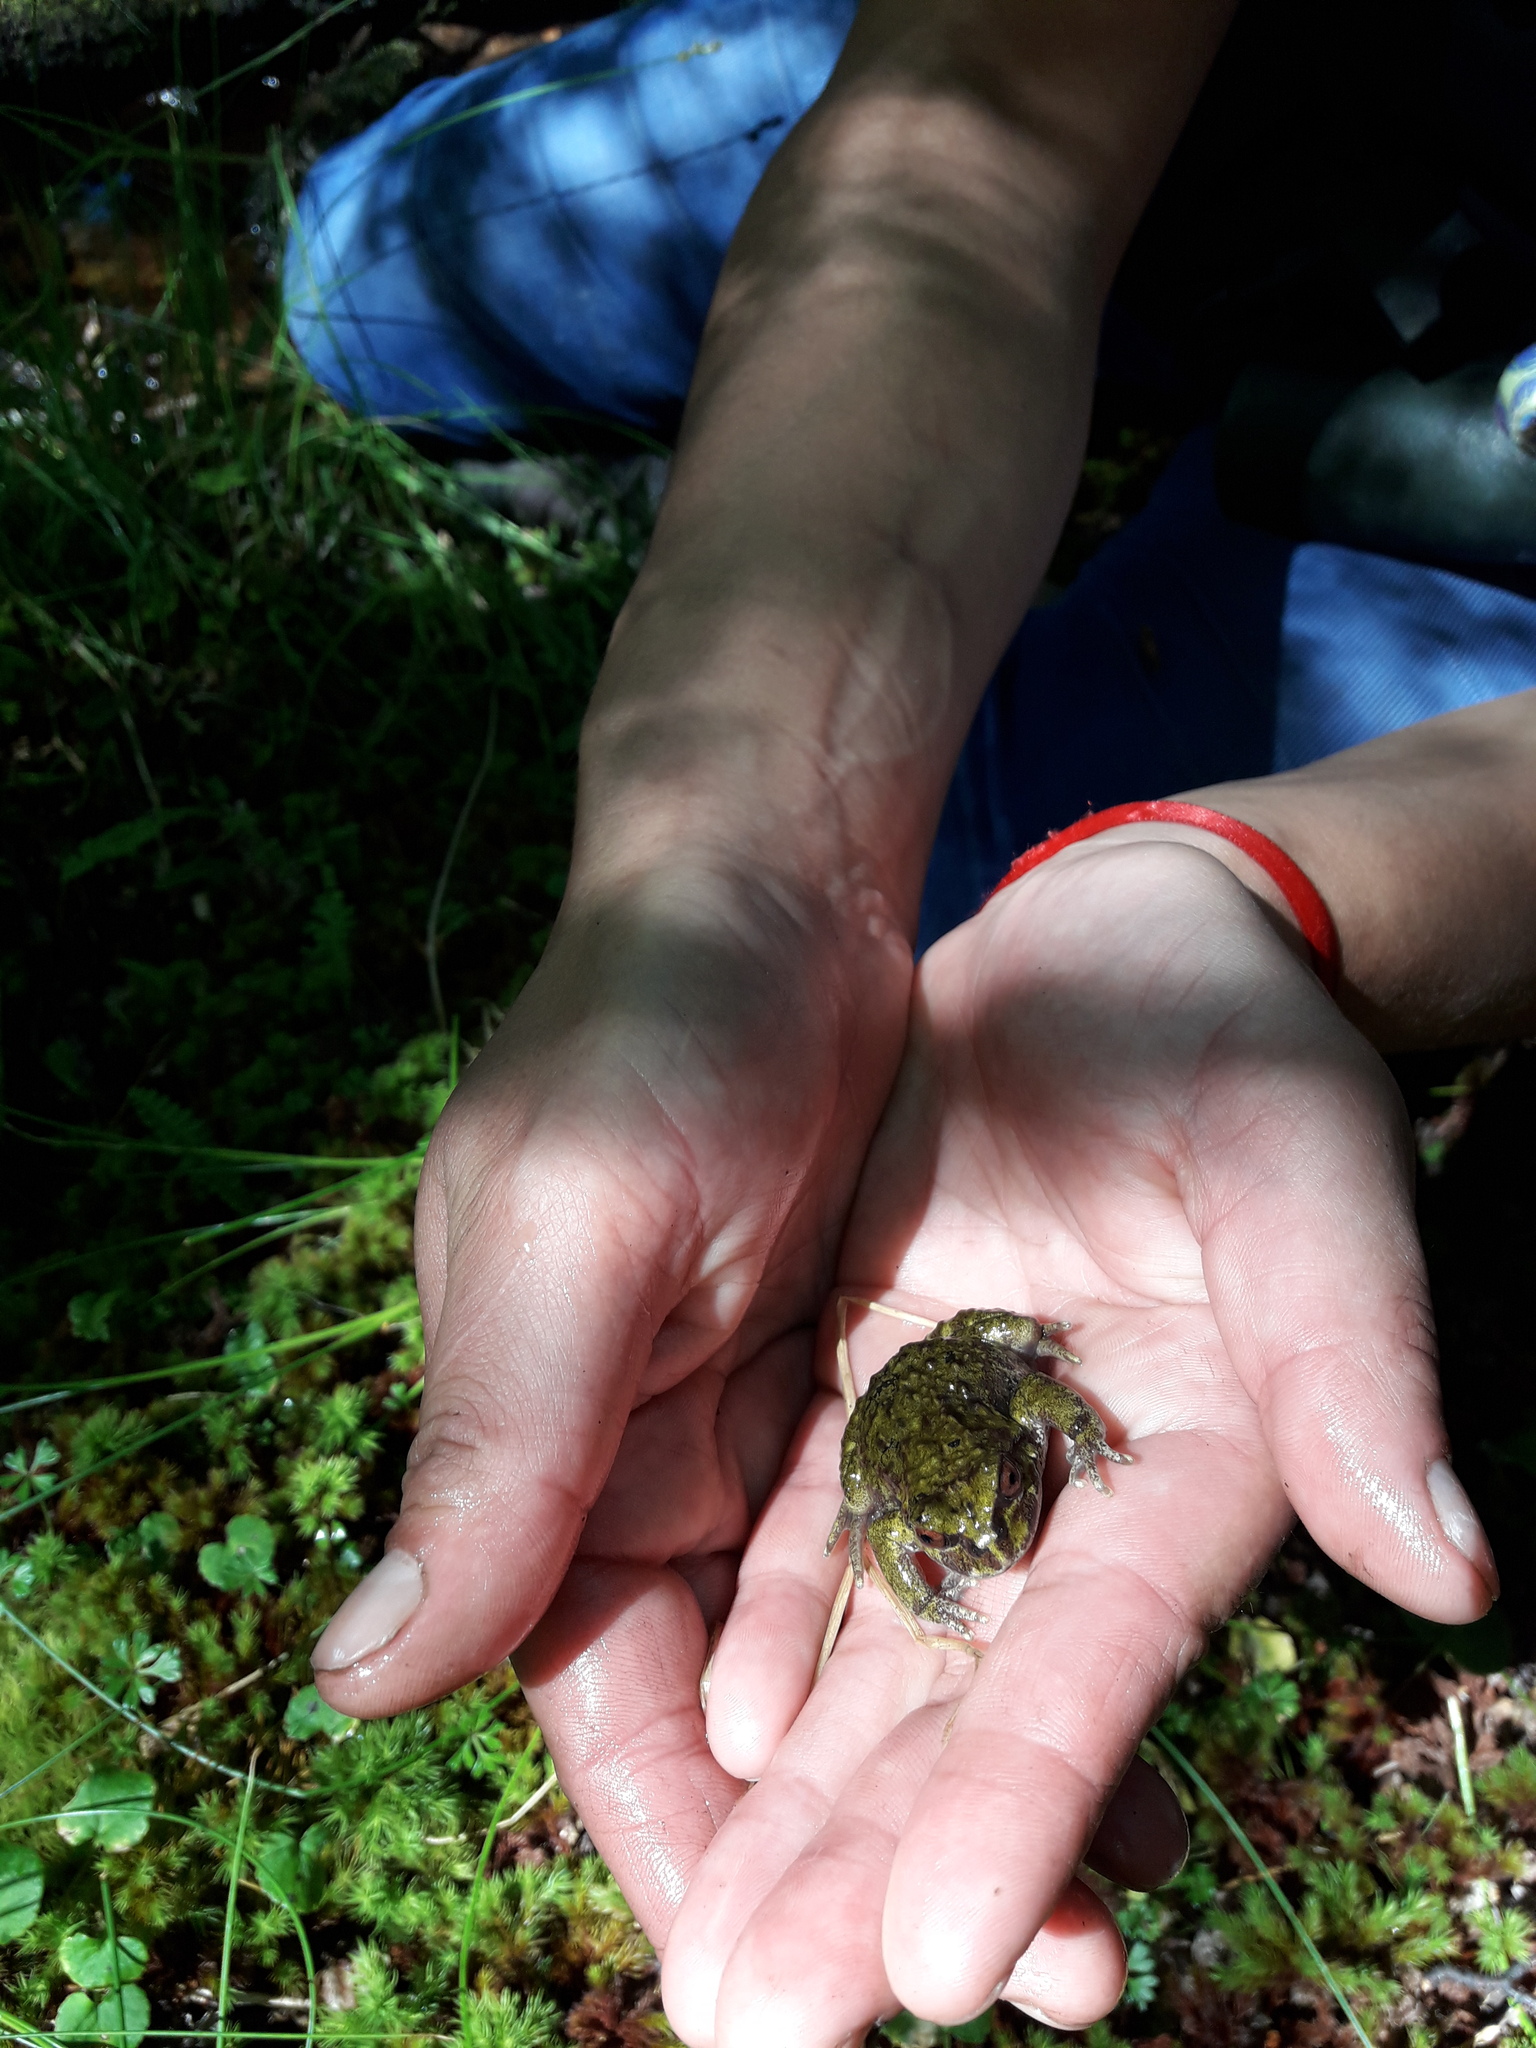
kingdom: Animalia
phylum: Chordata
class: Amphibia
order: Anura
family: Batrachylidae
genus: Chaltenobatrachus
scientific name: Chaltenobatrachus grandisonae
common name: Puerto eden frog
